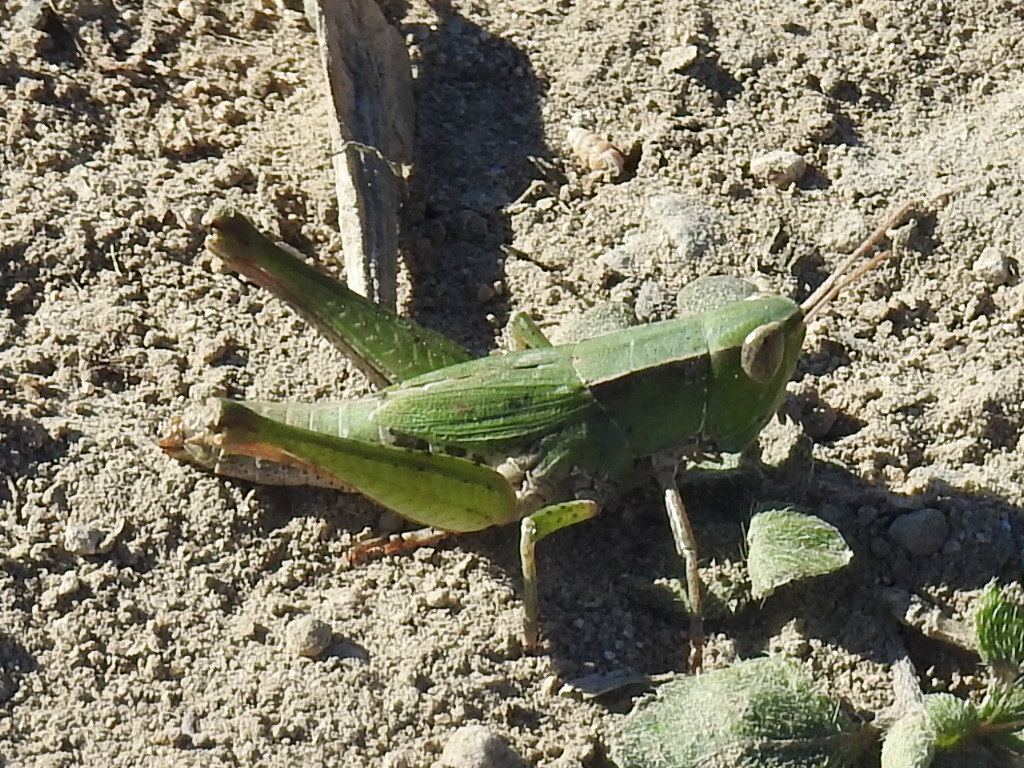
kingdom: Animalia
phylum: Arthropoda
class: Insecta
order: Orthoptera
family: Acrididae
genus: Dichromorpha
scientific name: Dichromorpha viridis
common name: Short-winged green grasshopper
